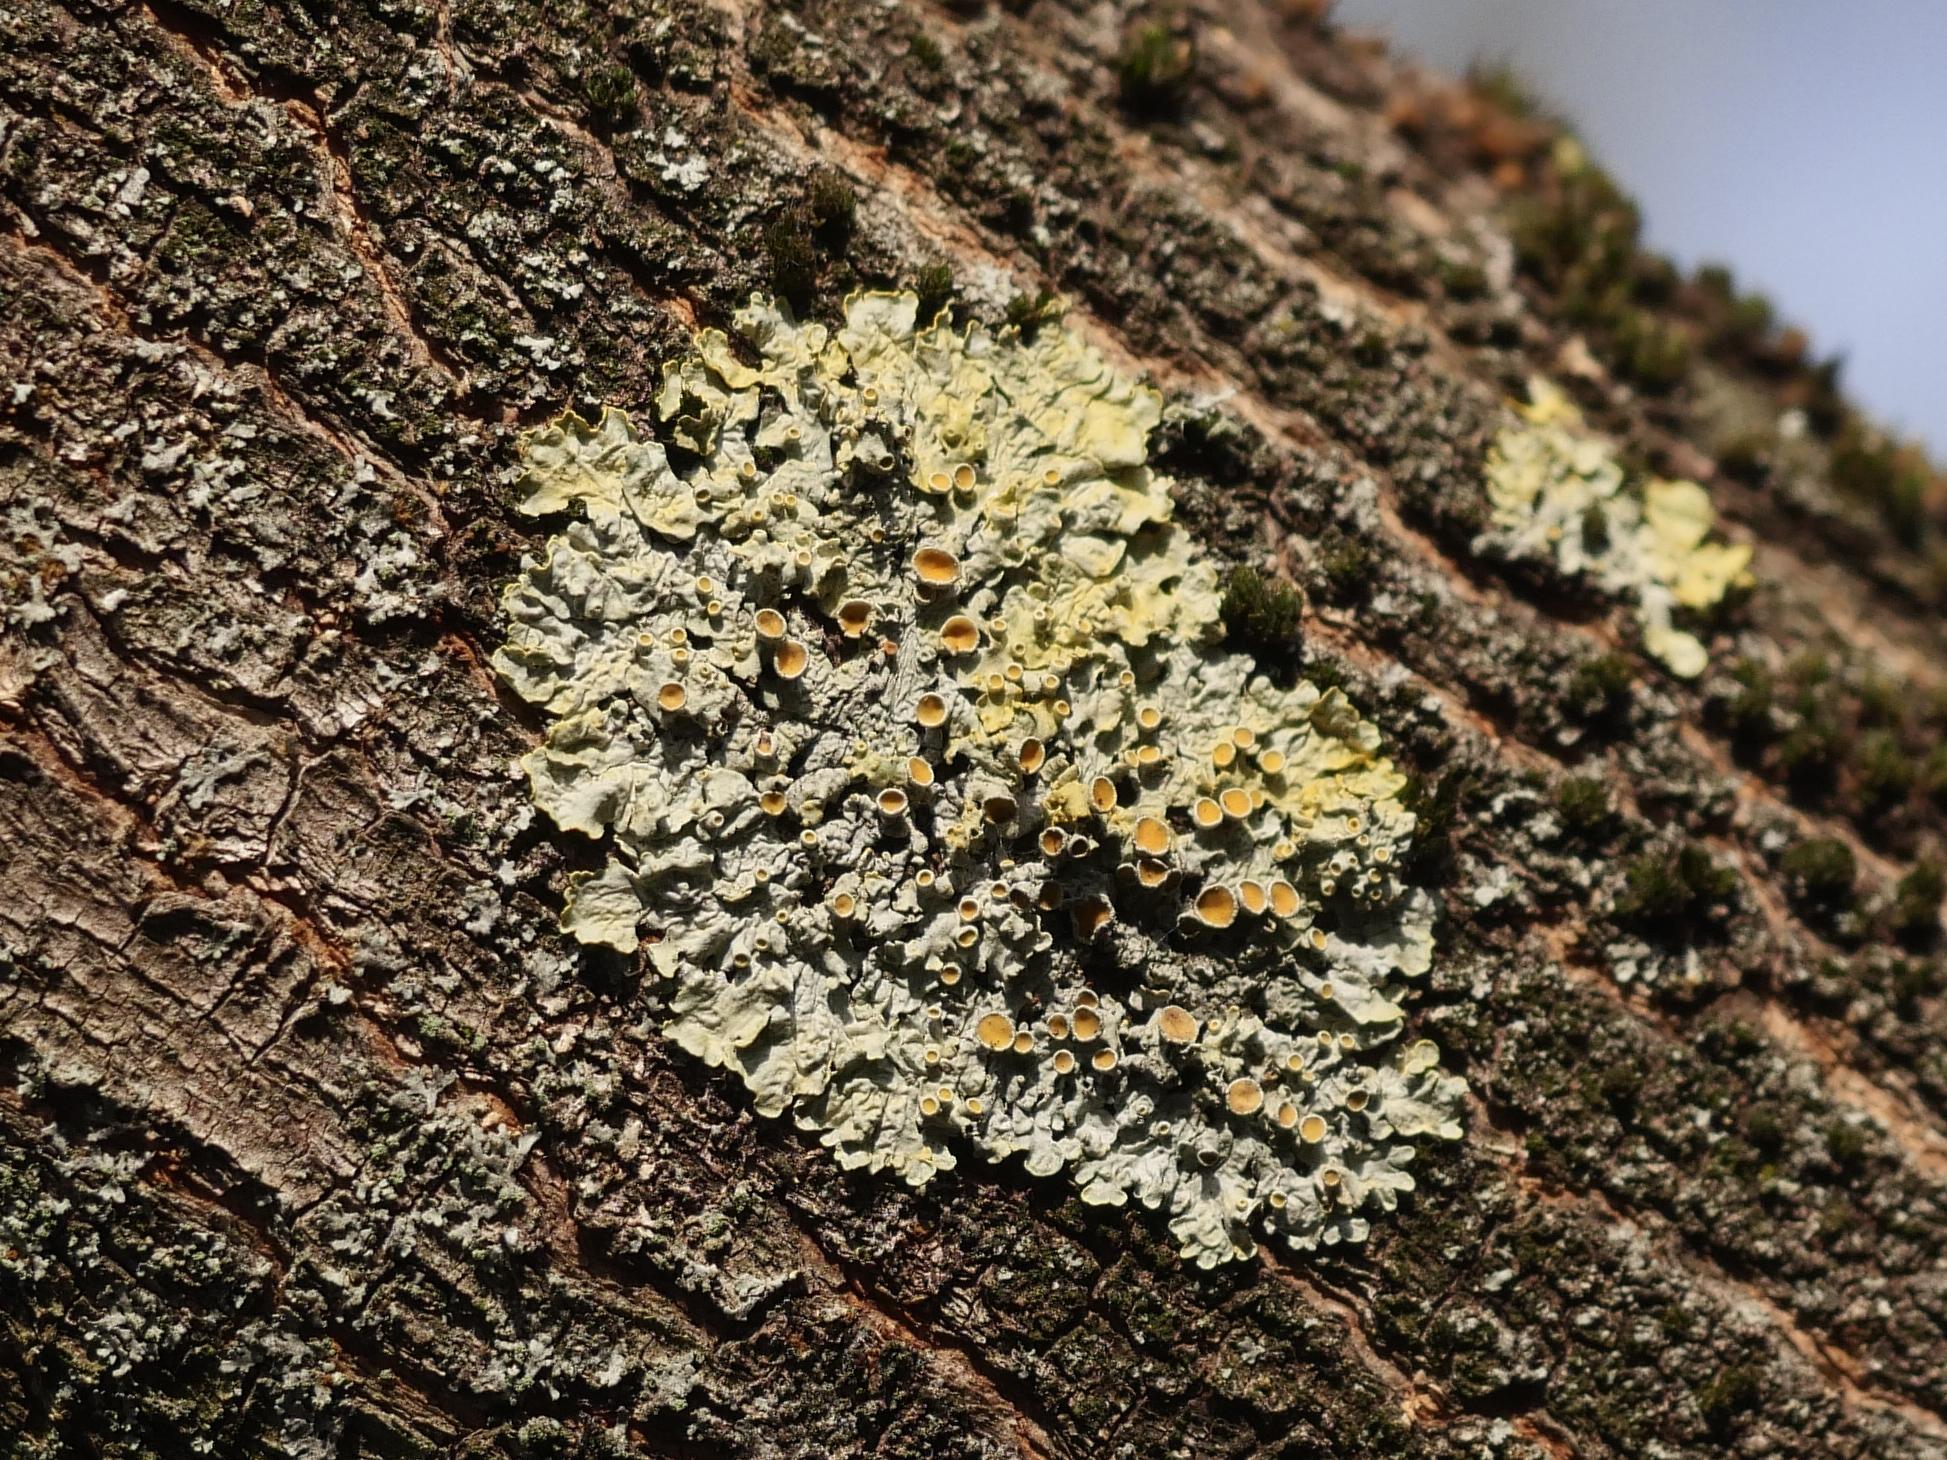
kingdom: Fungi
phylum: Ascomycota
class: Lecanoromycetes
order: Teloschistales
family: Teloschistaceae
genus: Xanthoria
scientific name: Xanthoria parietina
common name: Common orange lichen
